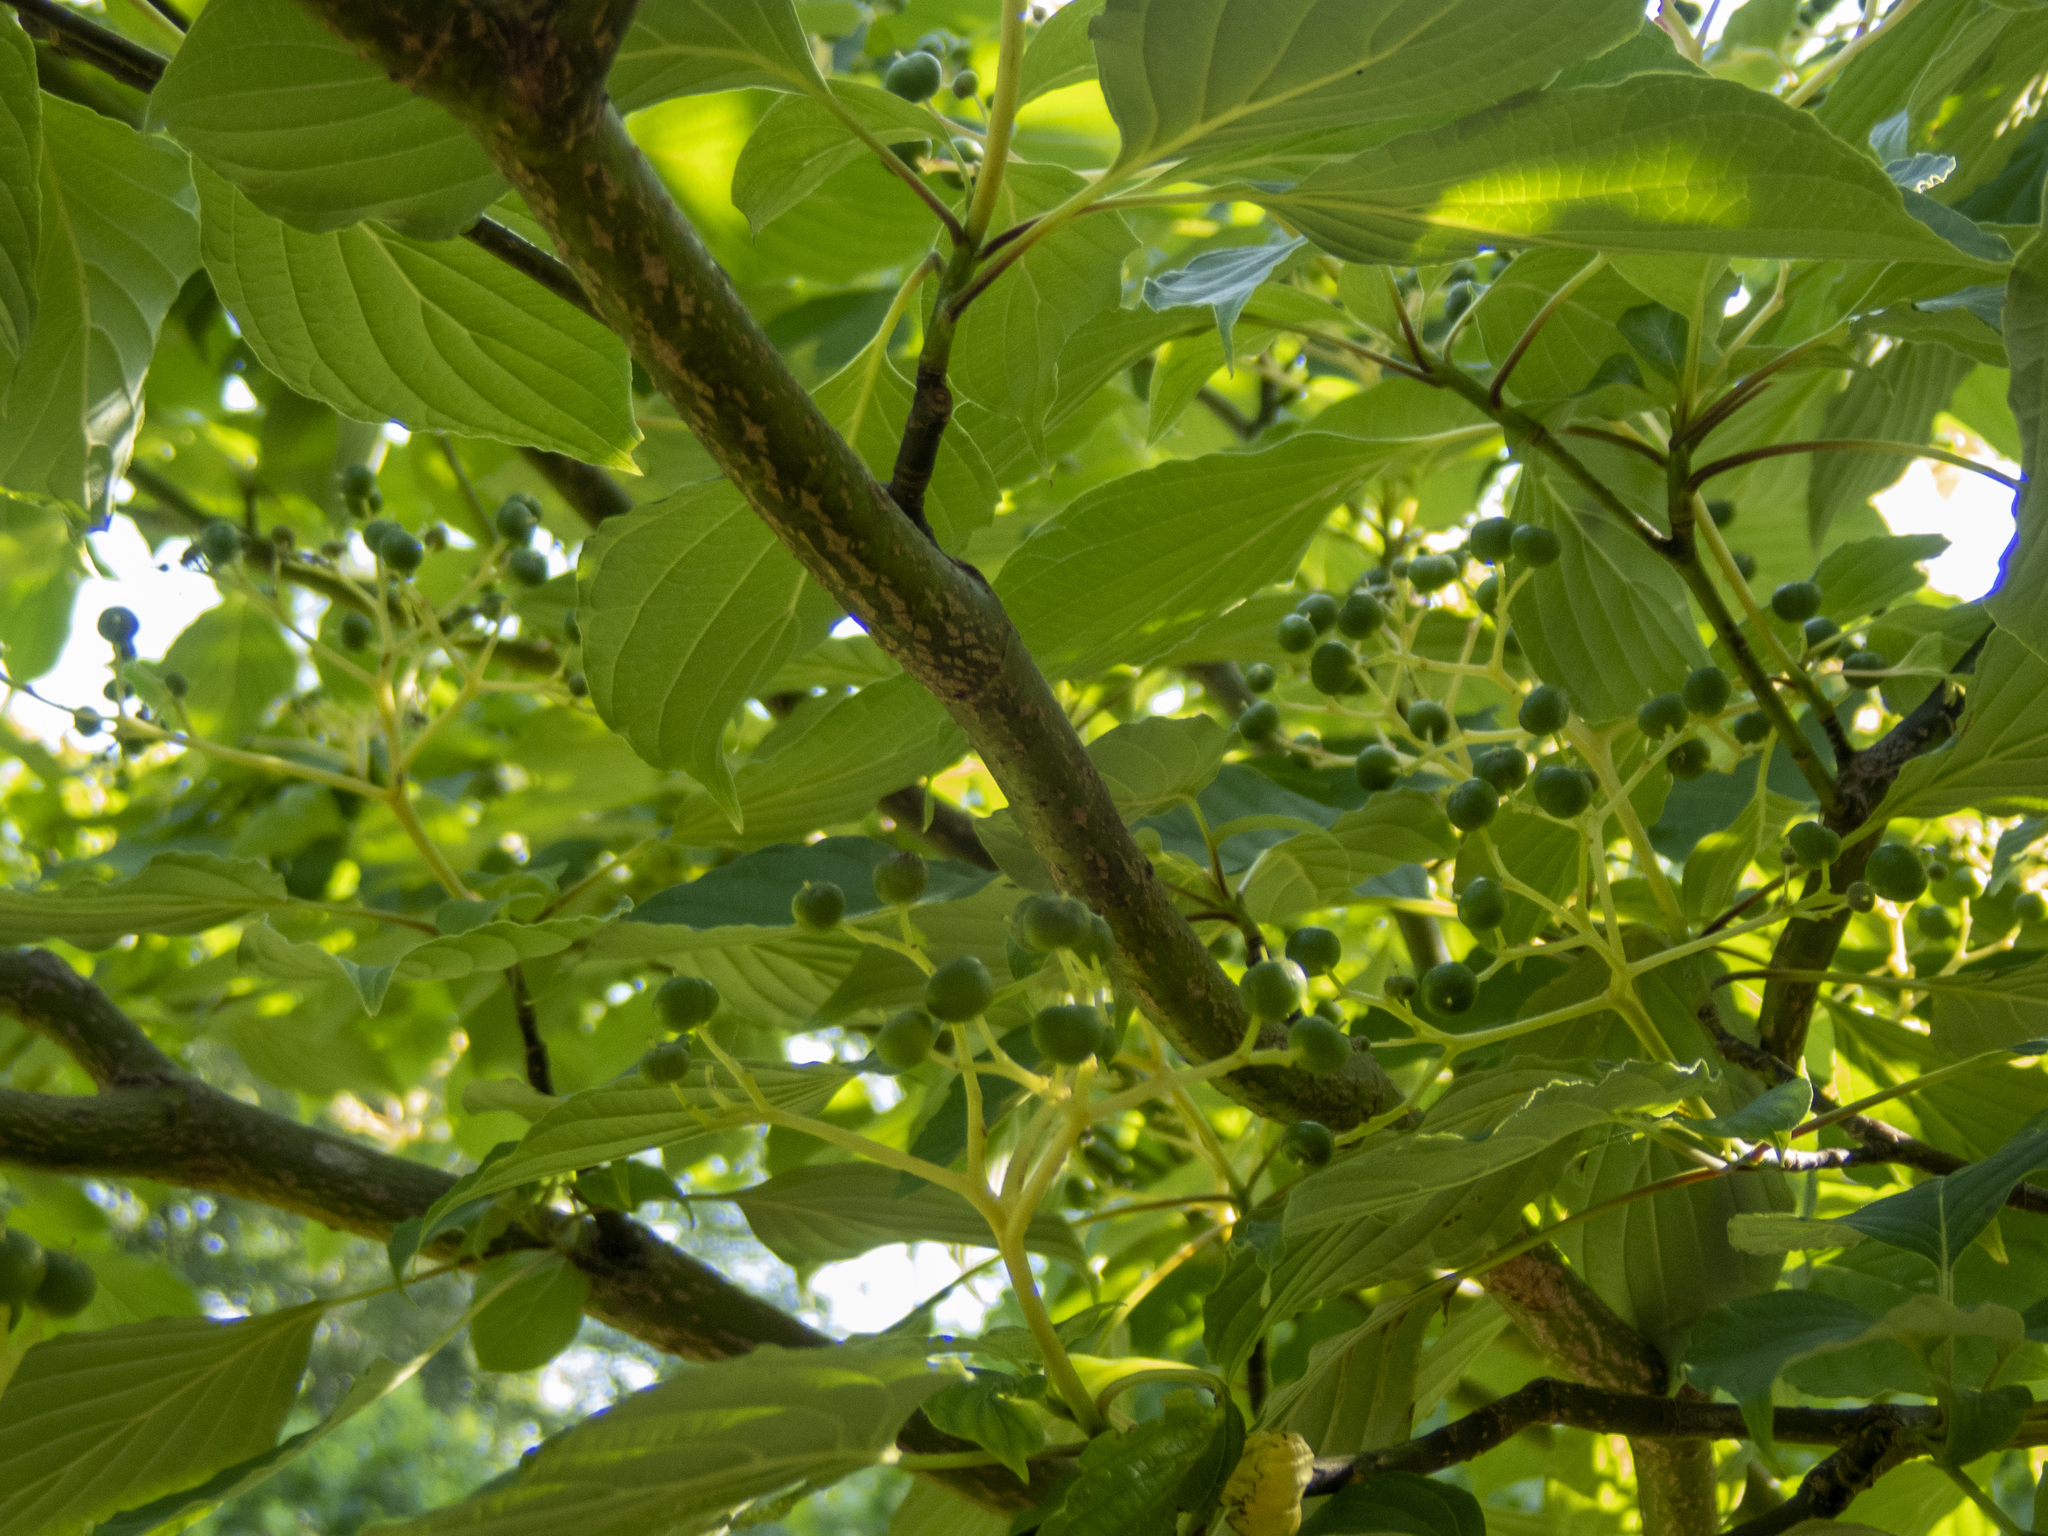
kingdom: Plantae
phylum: Tracheophyta
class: Magnoliopsida
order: Cornales
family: Cornaceae
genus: Cornus
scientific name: Cornus alternifolia
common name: Pagoda dogwood
